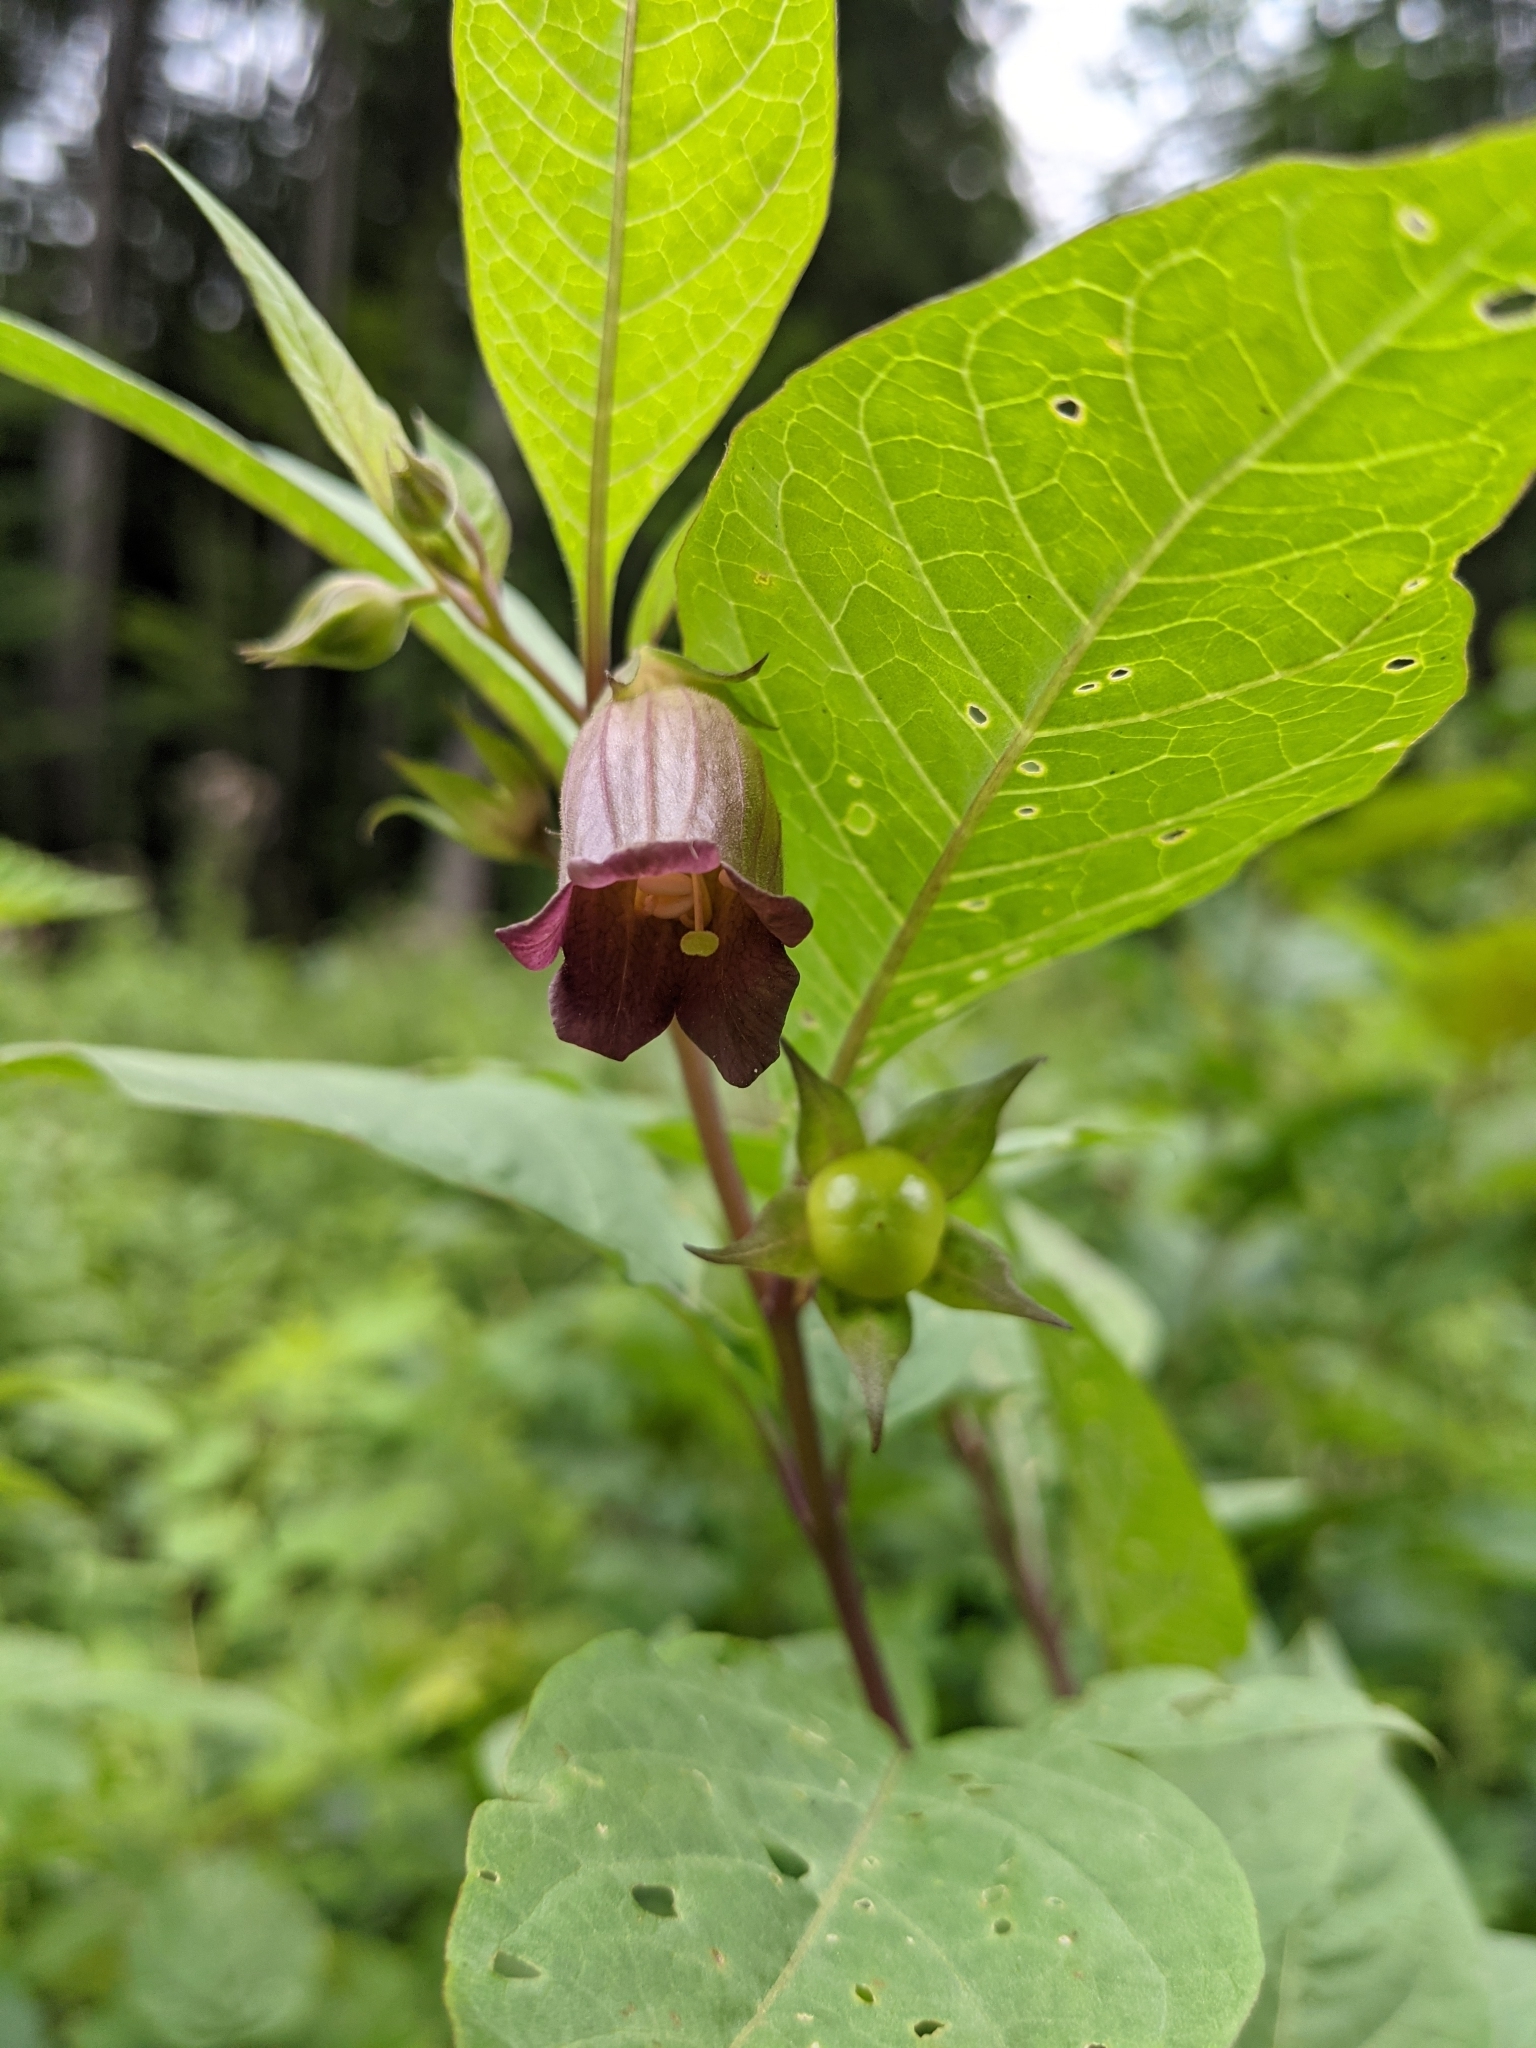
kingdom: Plantae
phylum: Tracheophyta
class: Magnoliopsida
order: Solanales
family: Solanaceae
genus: Atropa
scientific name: Atropa belladonna
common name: Deadly nightshade
